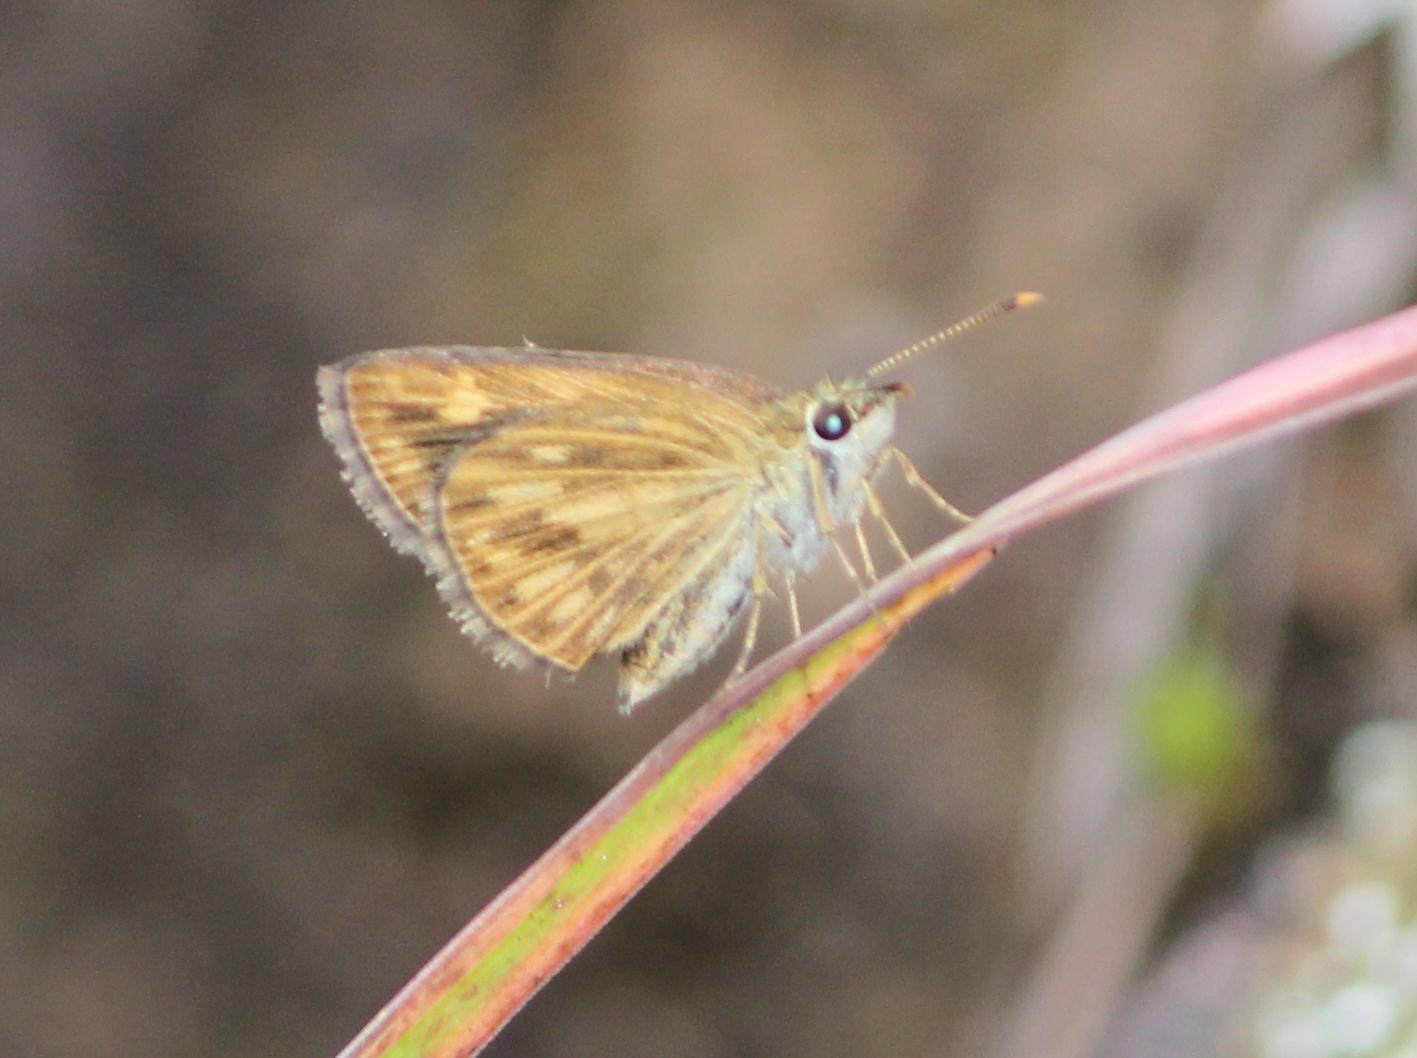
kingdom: Animalia
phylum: Arthropoda
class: Insecta
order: Lepidoptera
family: Hesperiidae
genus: Baracus
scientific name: Baracus vittatus
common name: Hedge-hopper
